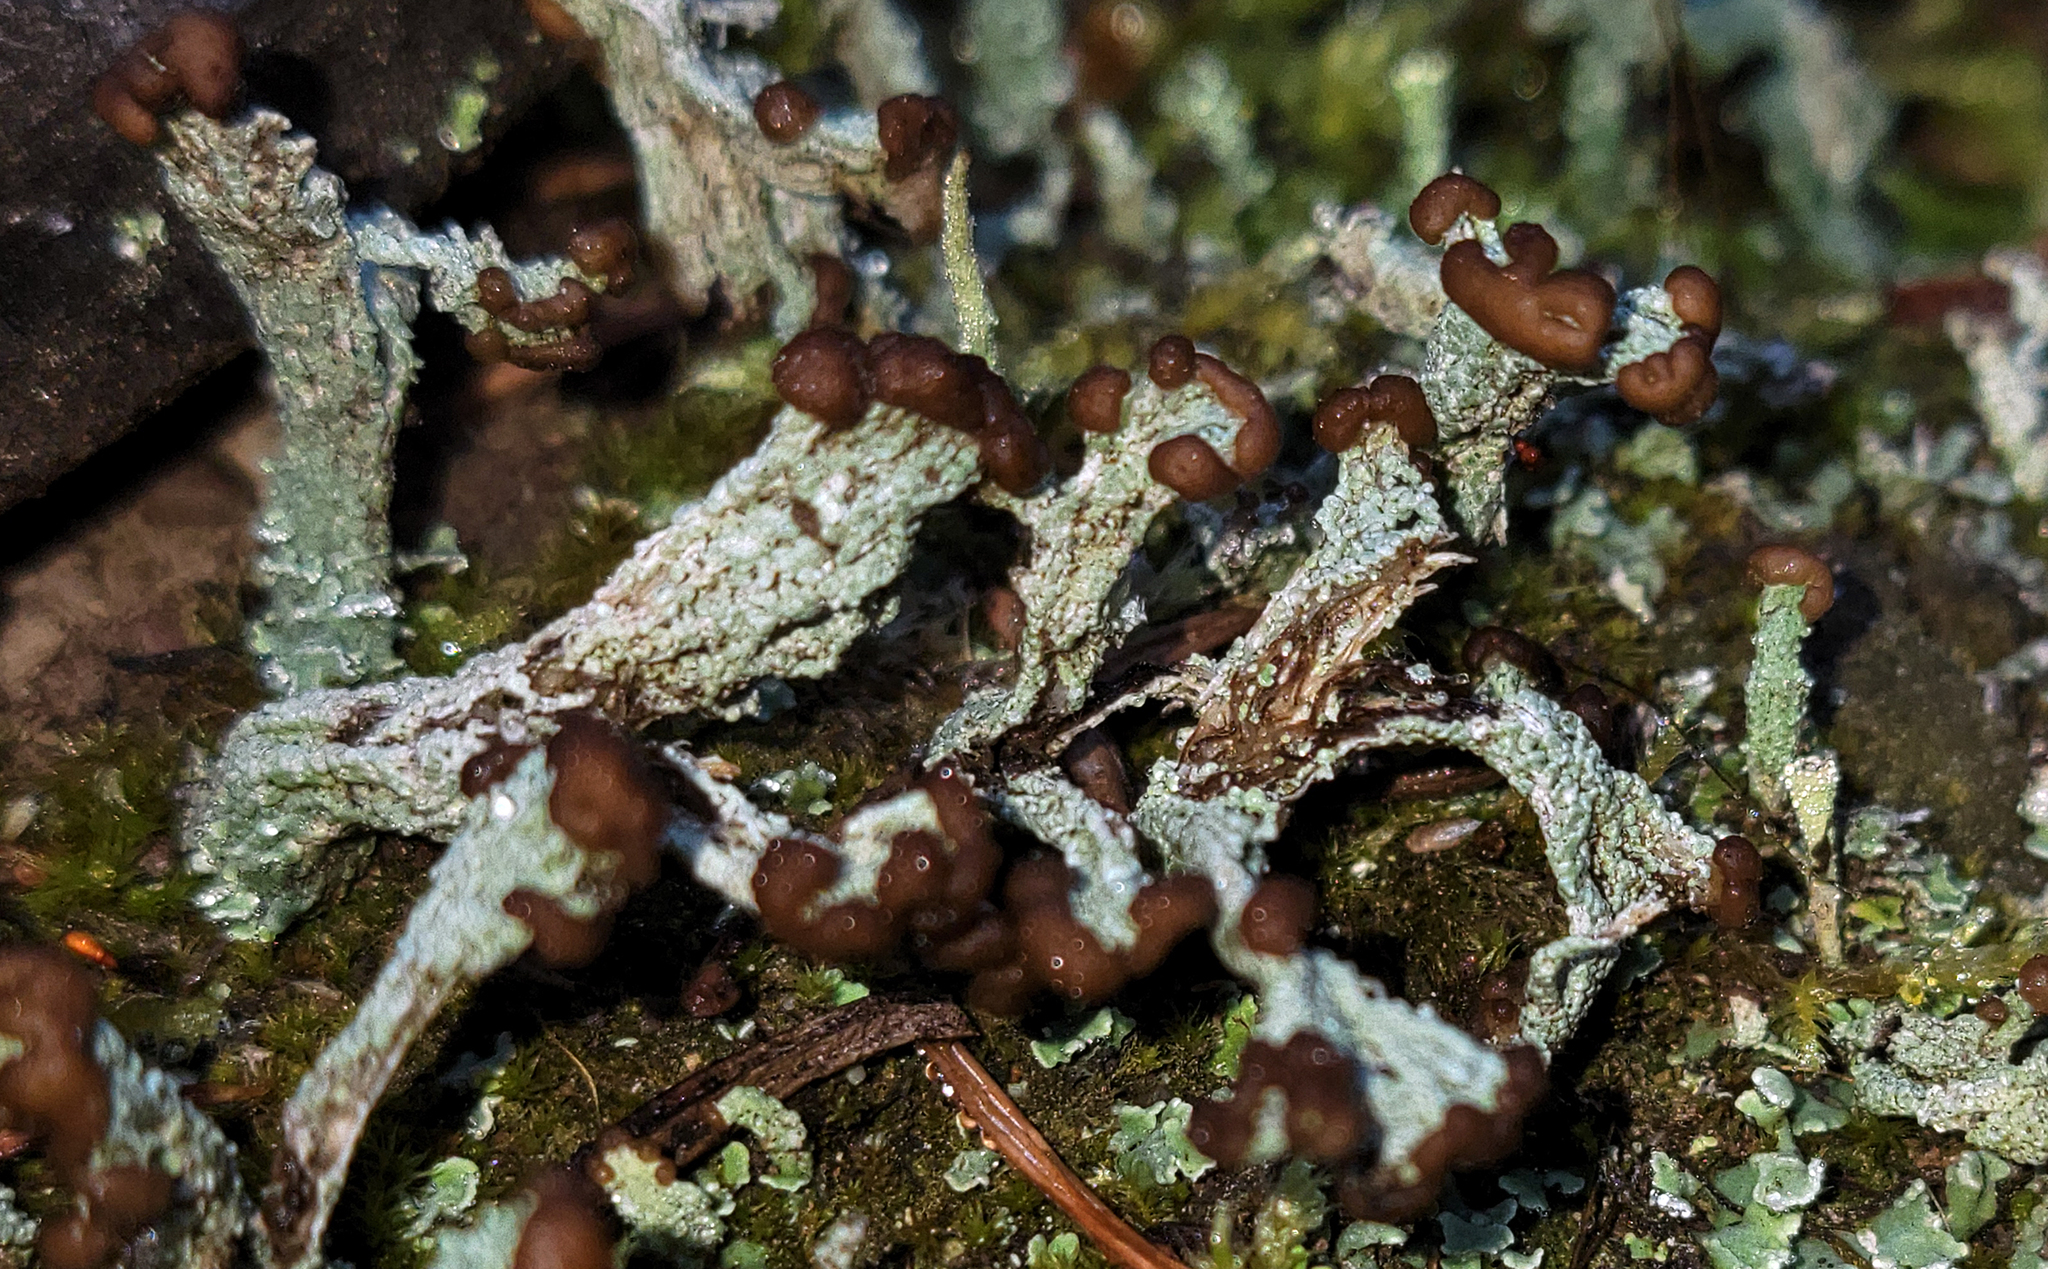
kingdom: Fungi
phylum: Ascomycota
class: Lecanoromycetes
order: Lecanorales
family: Cladoniaceae
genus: Cladonia
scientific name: Cladonia cariosa
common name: Split-peg lichen
